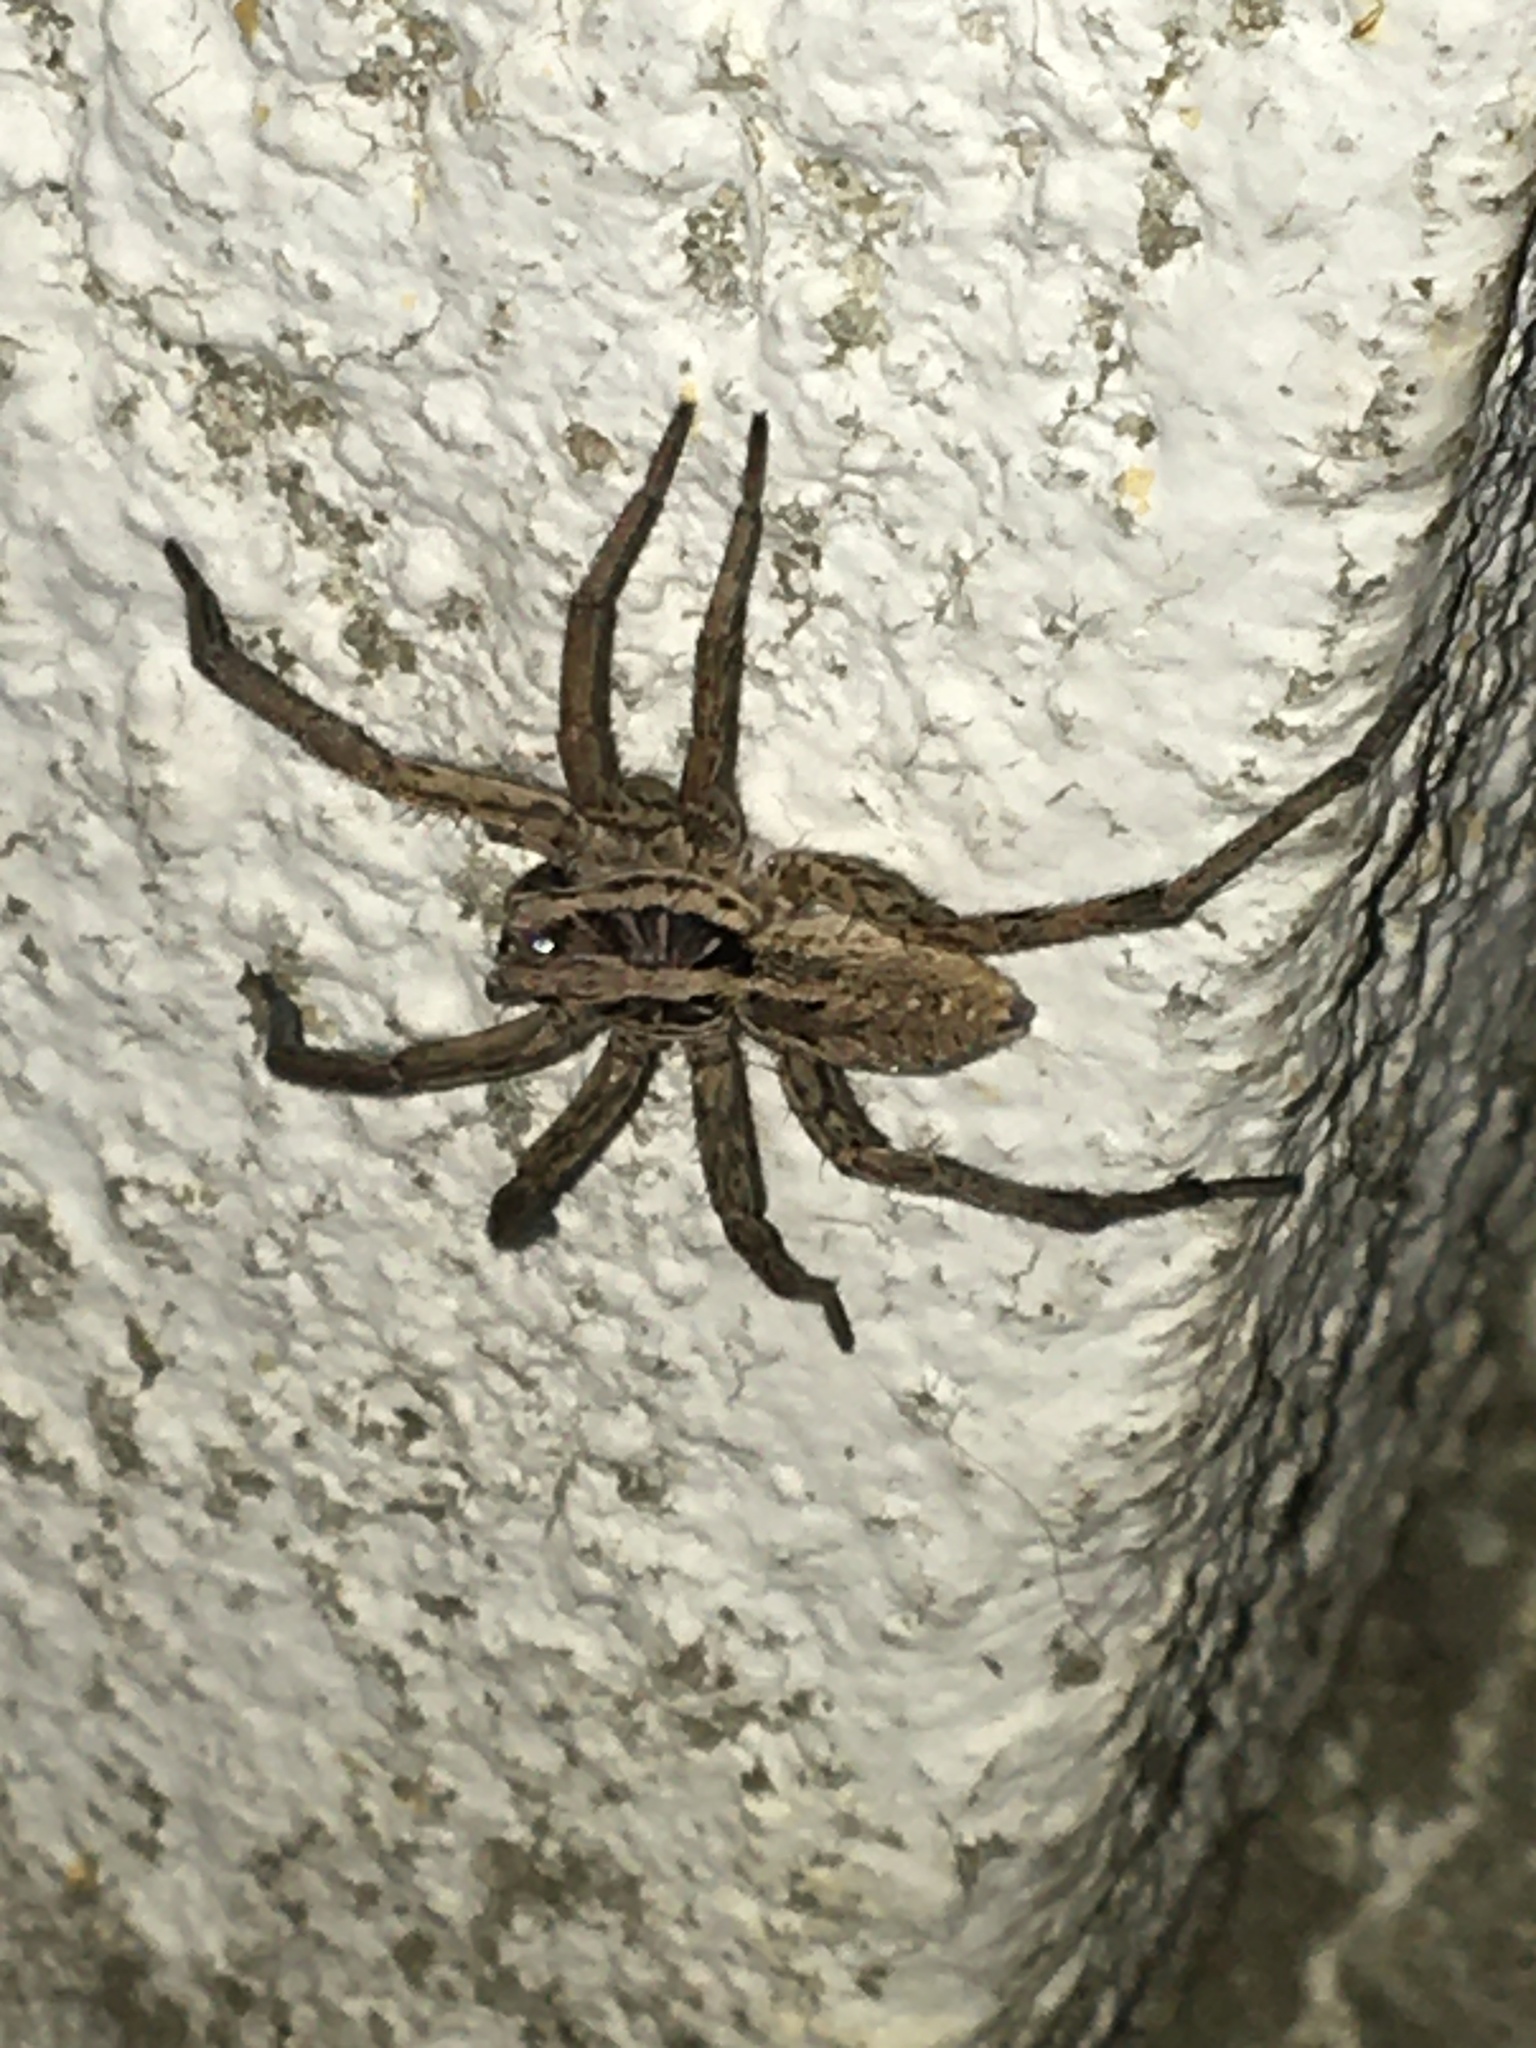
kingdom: Animalia
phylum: Arthropoda
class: Arachnida
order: Araneae
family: Lycosidae
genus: Hogna
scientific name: Hogna radiata
